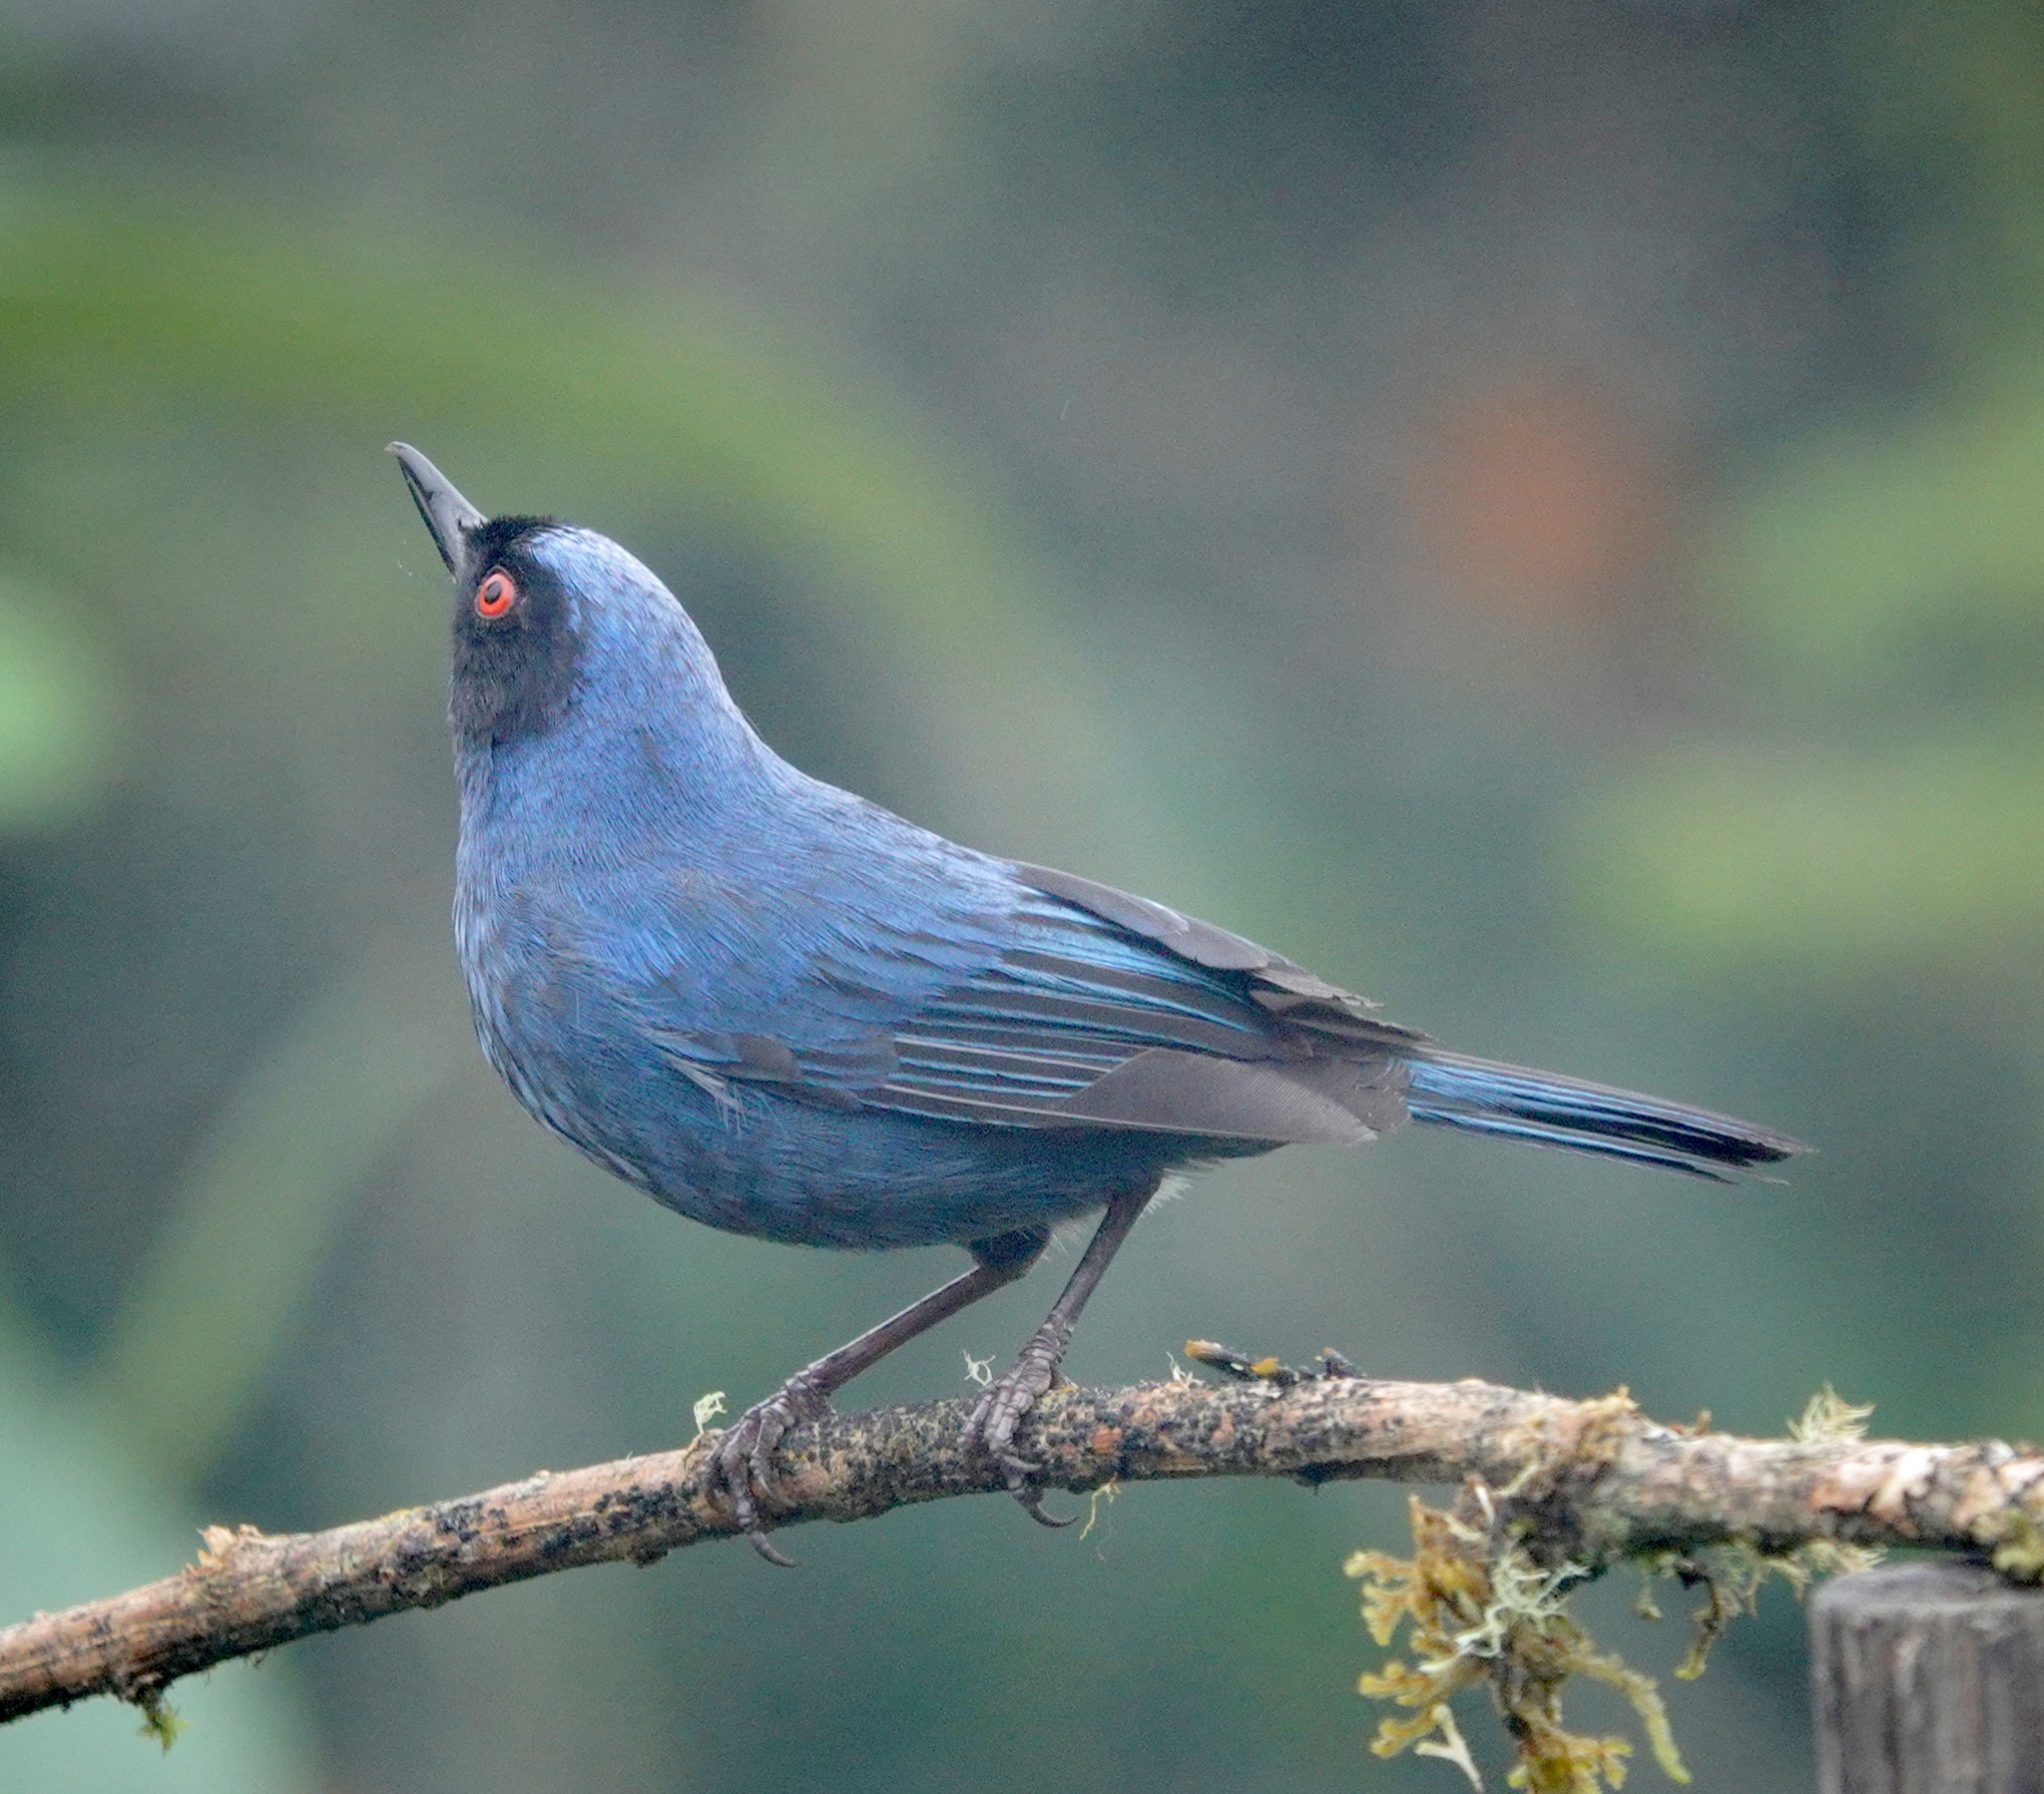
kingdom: Animalia
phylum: Chordata
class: Aves
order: Passeriformes
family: Thraupidae
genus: Diglossa
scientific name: Diglossa cyanea
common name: Masked flowerpiercer
